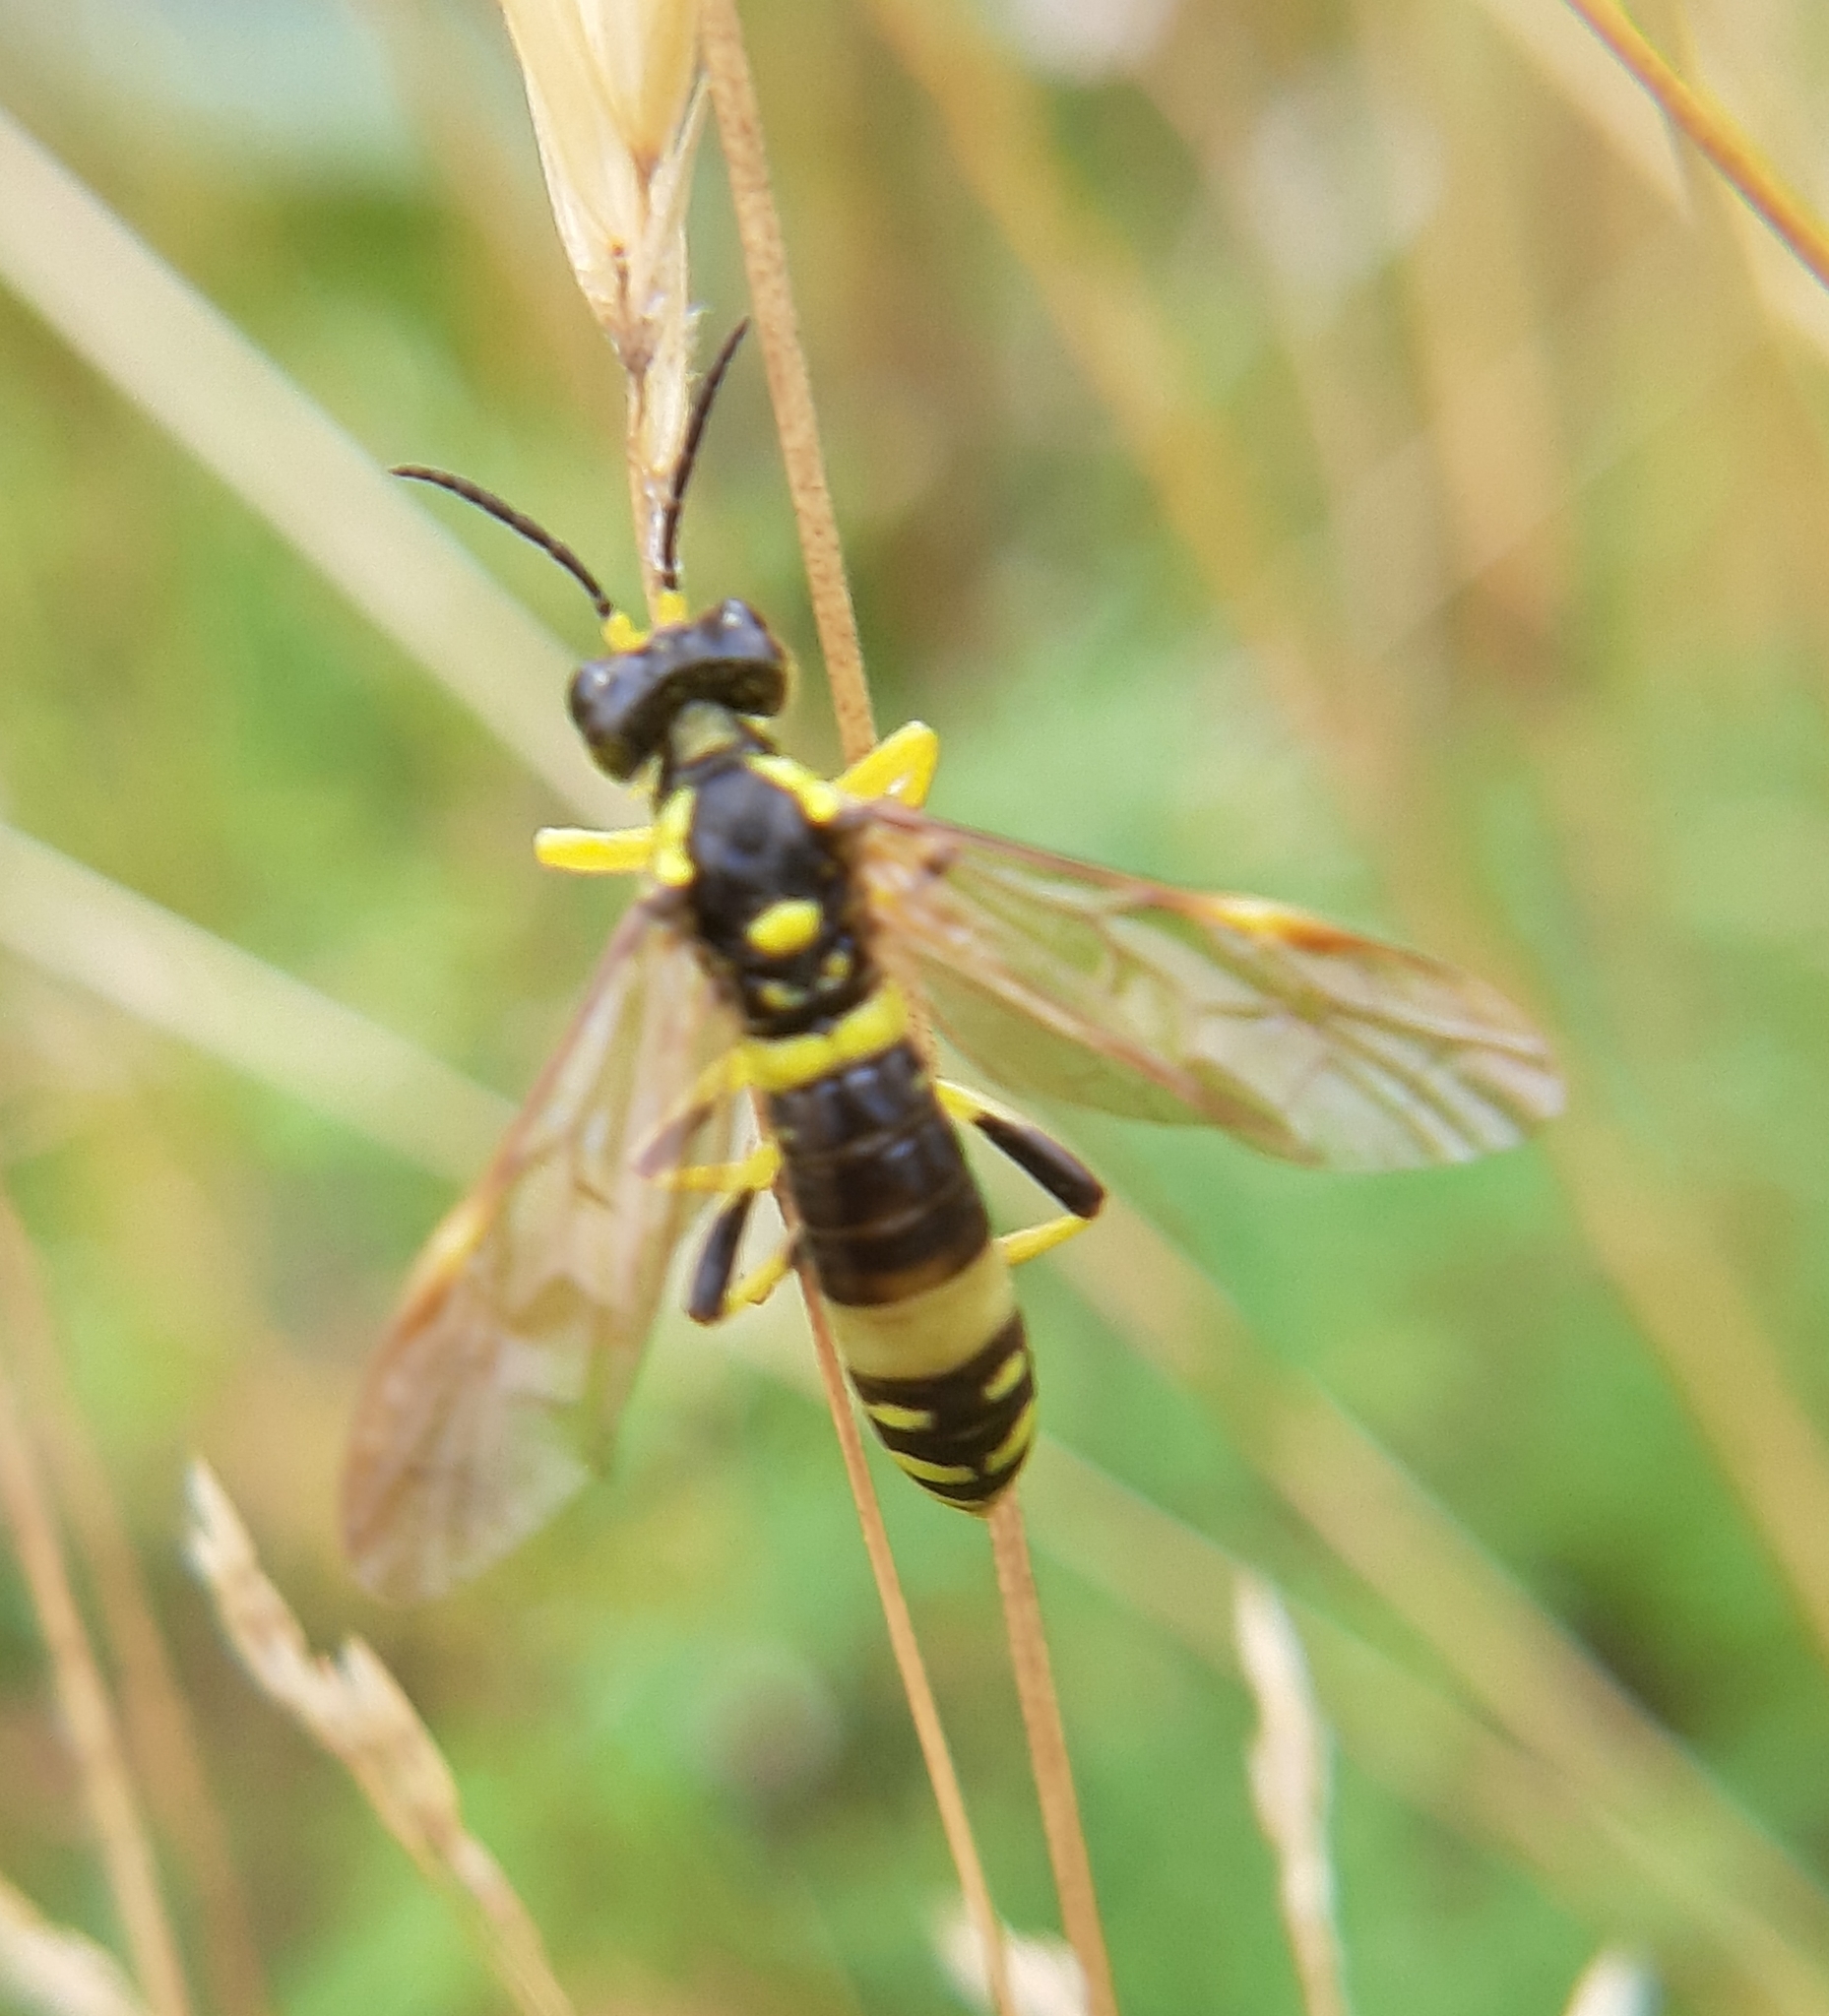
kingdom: Animalia
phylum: Arthropoda
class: Insecta
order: Hymenoptera
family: Tenthredinidae
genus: Tenthredo
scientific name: Tenthredo
